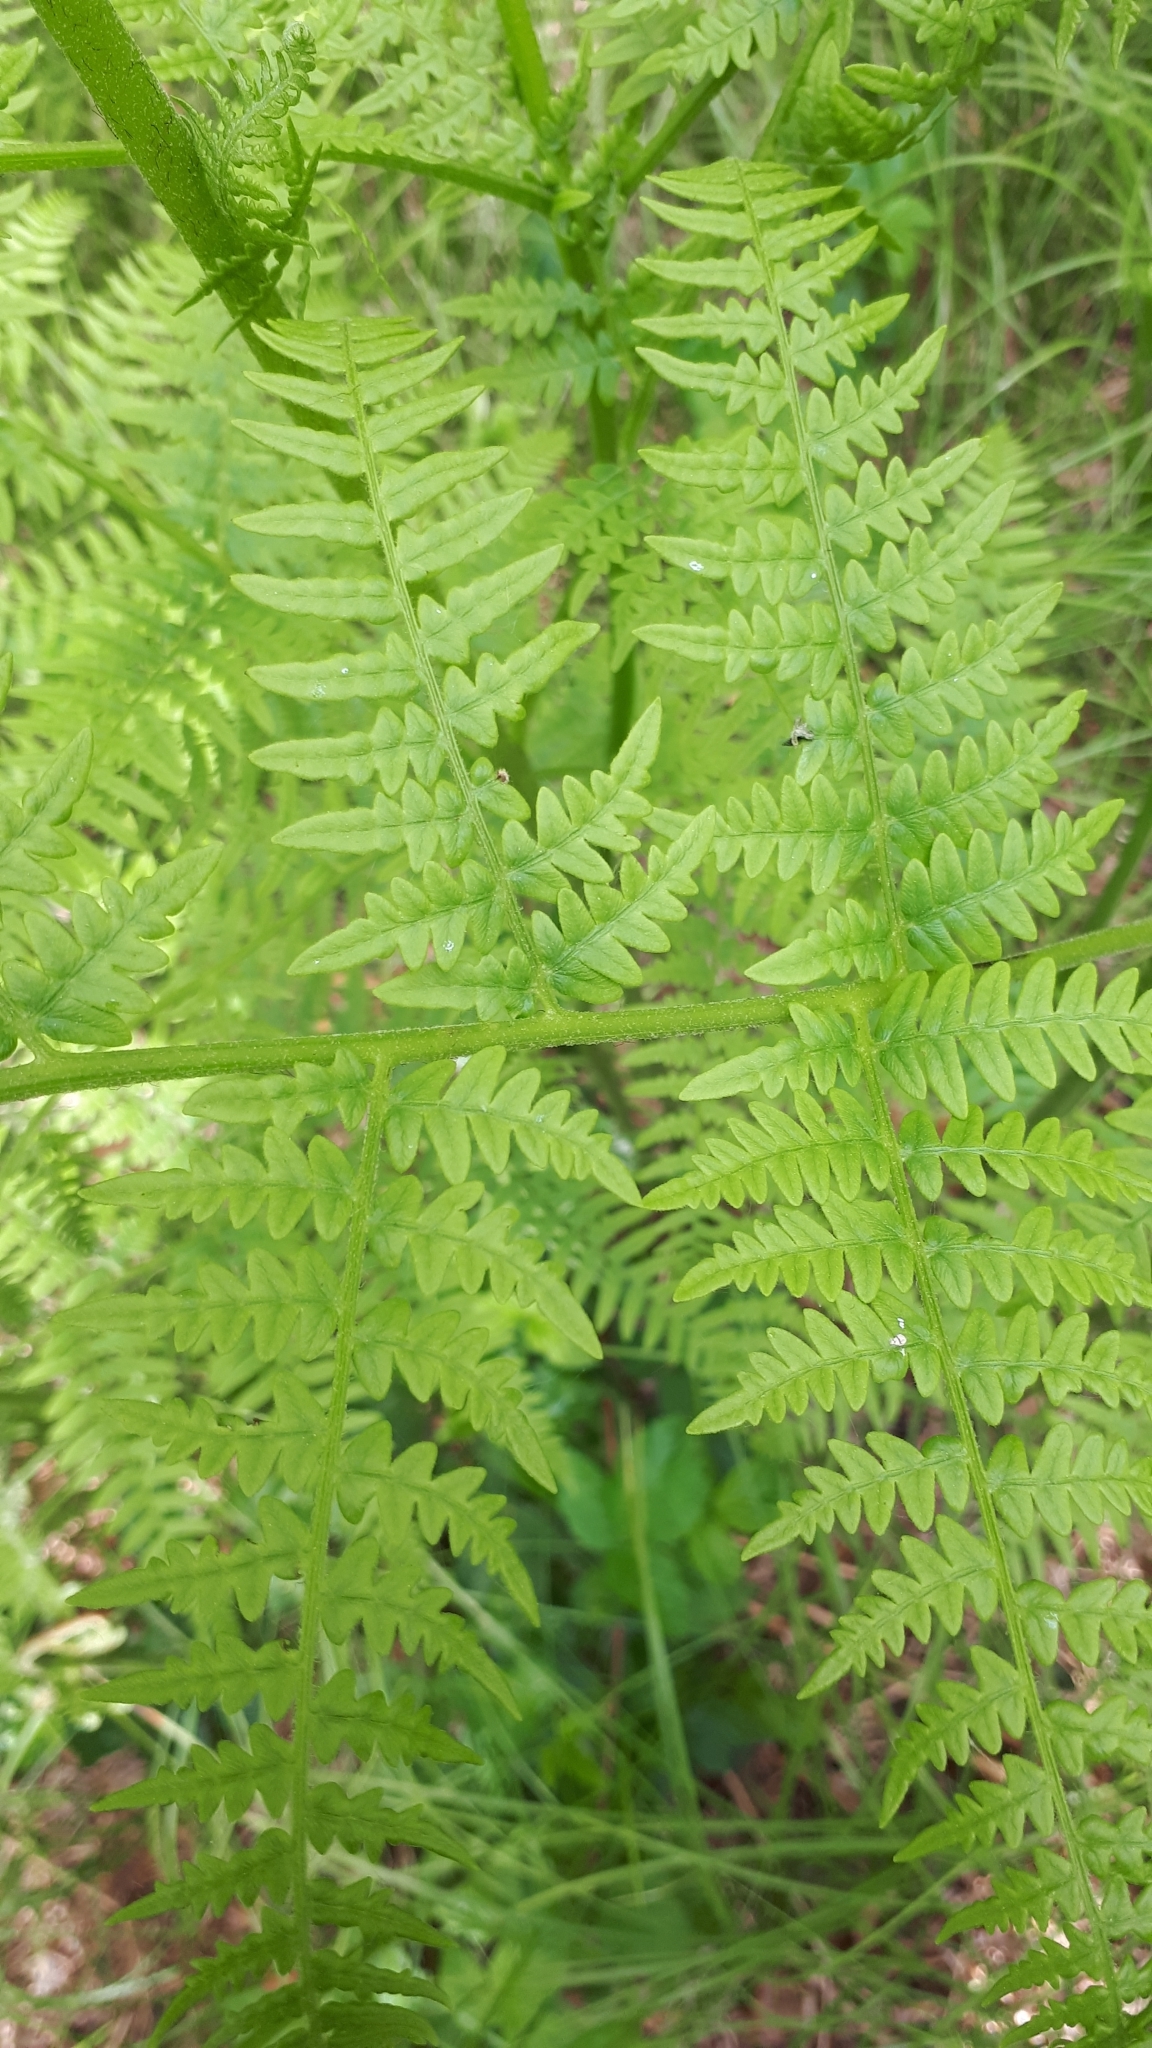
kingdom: Plantae
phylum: Tracheophyta
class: Polypodiopsida
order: Polypodiales
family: Dennstaedtiaceae
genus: Pteridium
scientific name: Pteridium aquilinum
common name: Bracken
